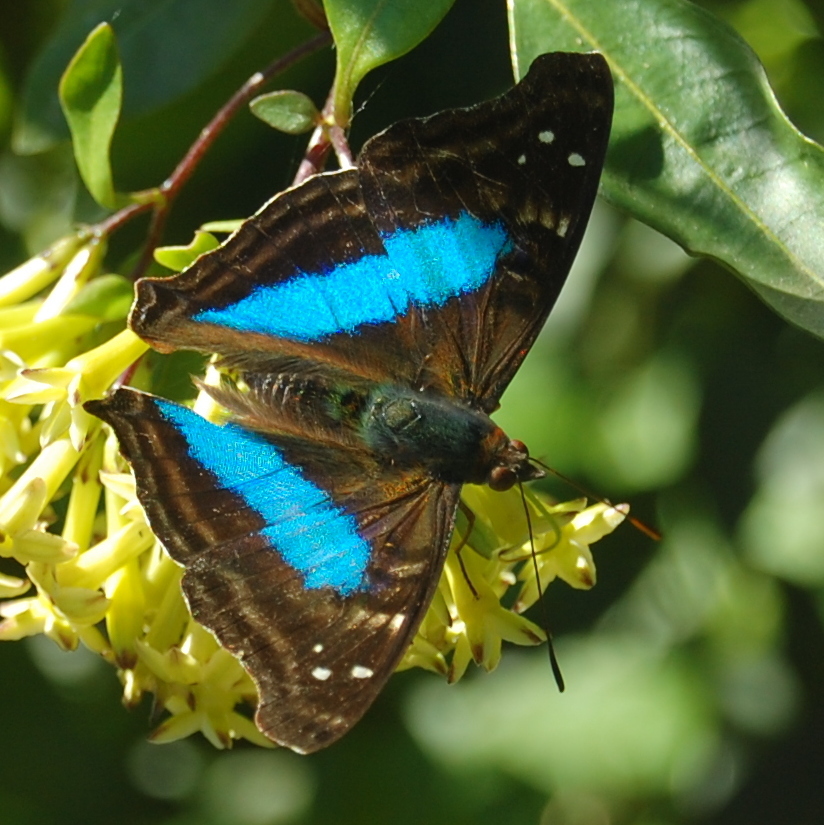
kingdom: Animalia
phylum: Arthropoda
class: Insecta
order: Lepidoptera
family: Nymphalidae
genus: Doxocopa
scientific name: Doxocopa laurentia
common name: Turquoise emperor
